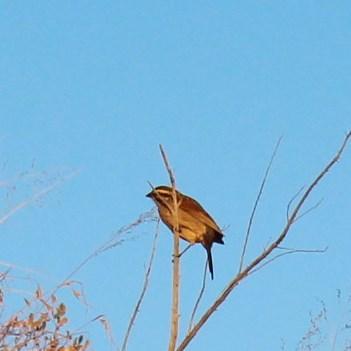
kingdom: Animalia
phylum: Chordata
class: Aves
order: Passeriformes
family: Emberizidae
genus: Emberiza
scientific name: Emberiza capensis
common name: Cape bunting
